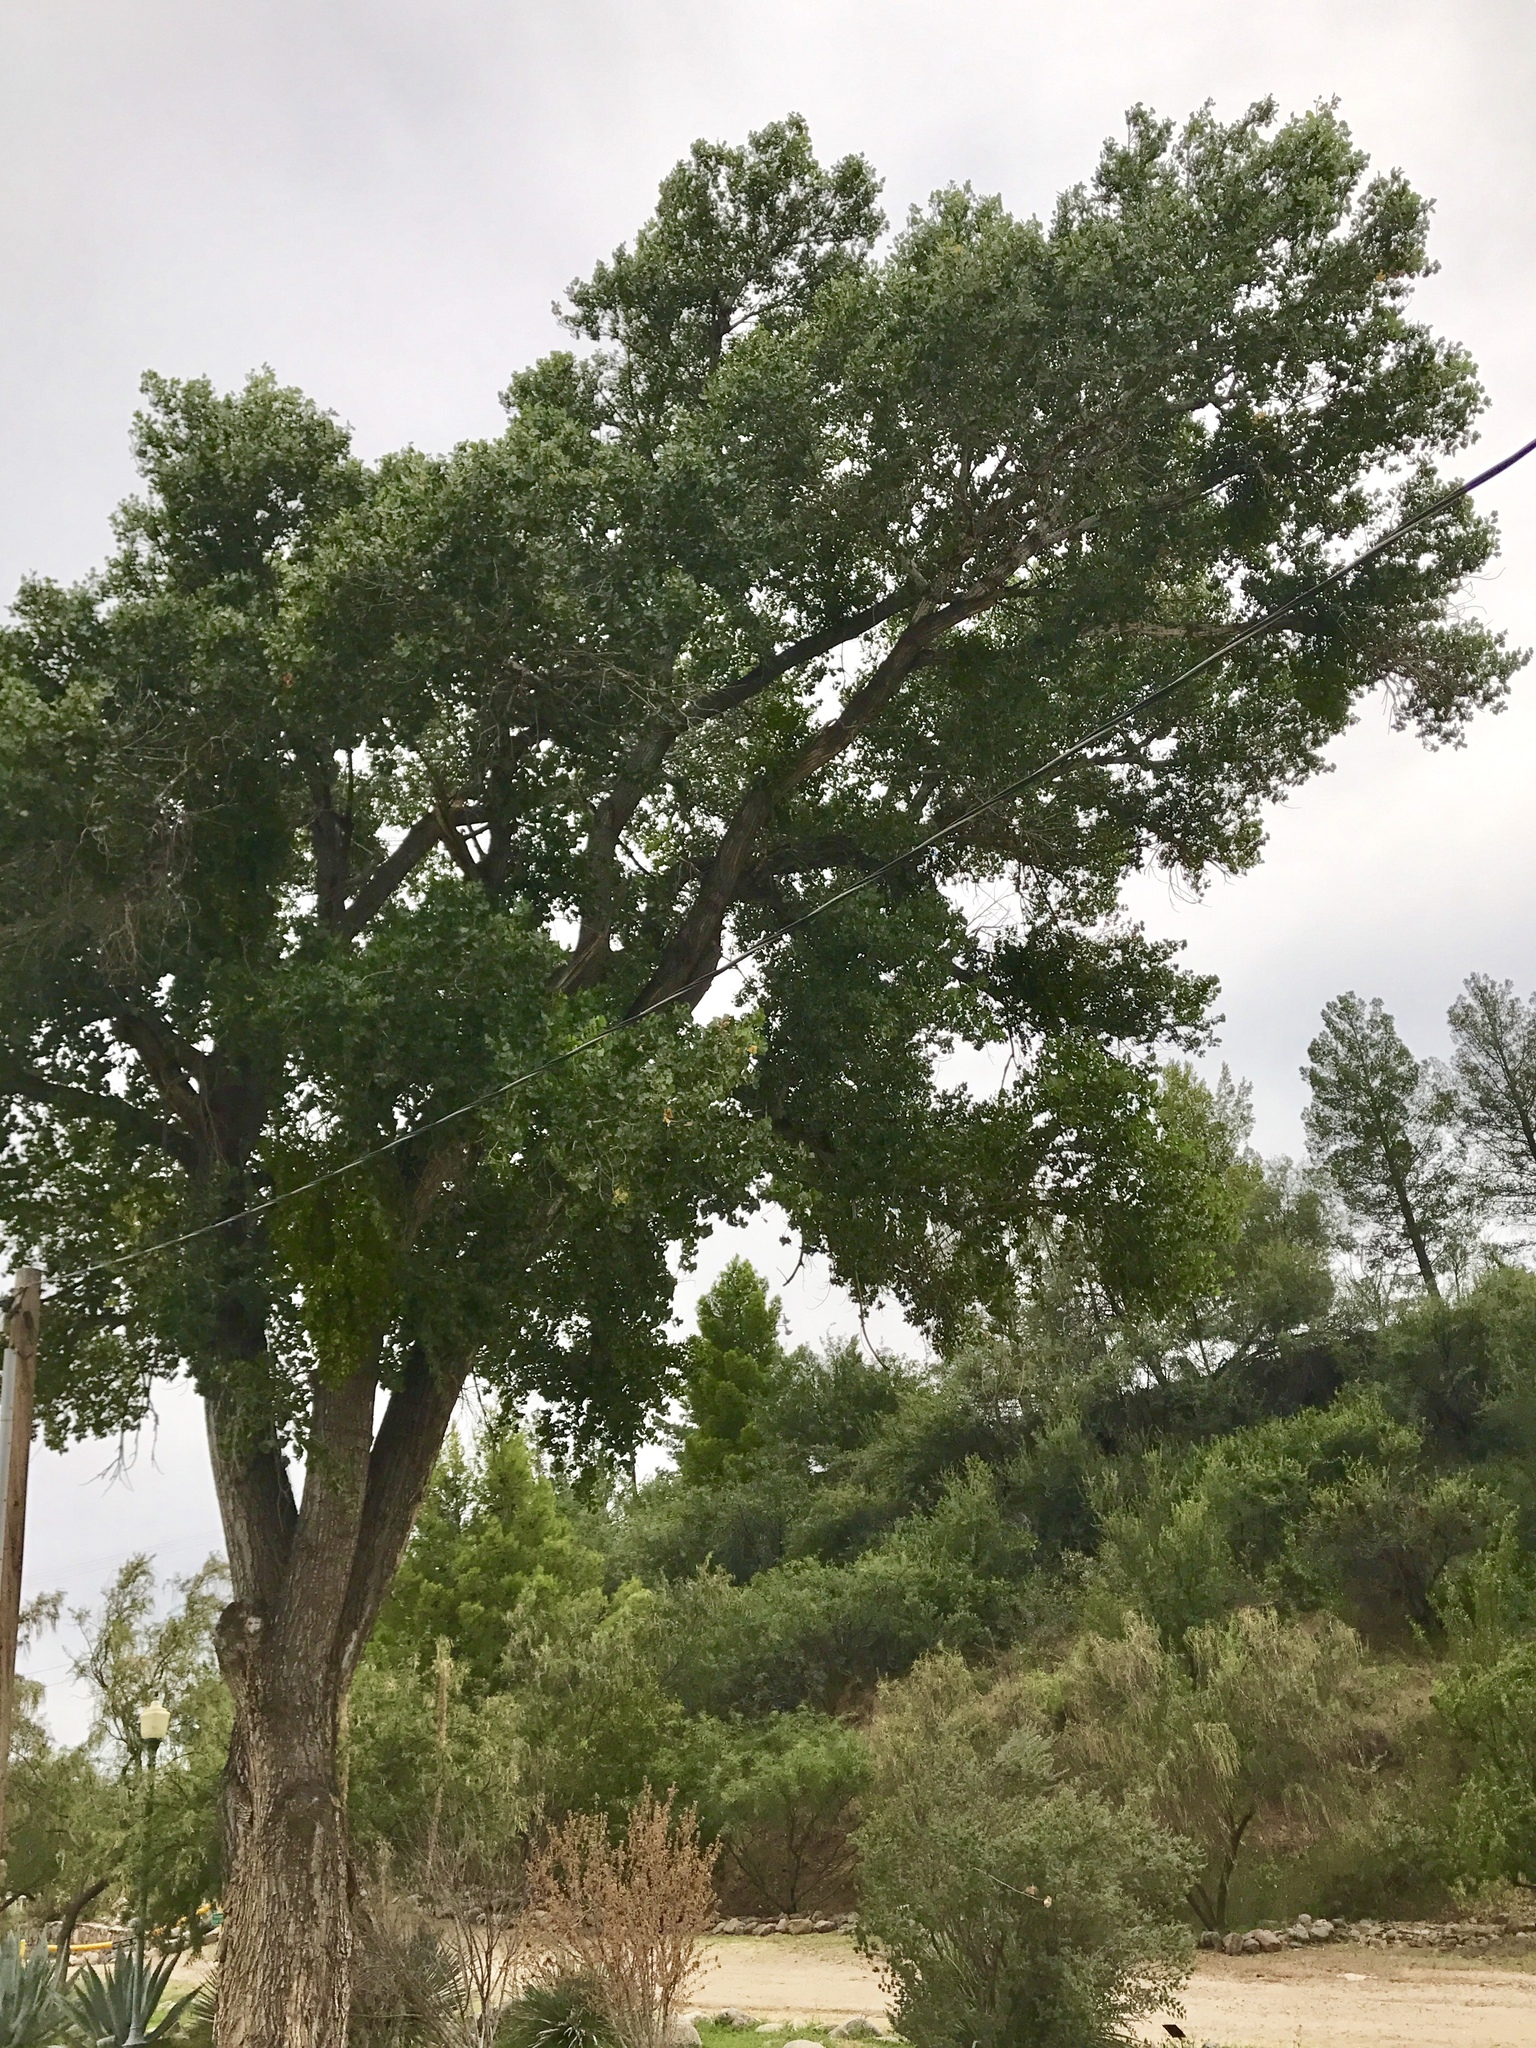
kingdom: Plantae
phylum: Tracheophyta
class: Magnoliopsida
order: Malpighiales
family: Salicaceae
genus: Populus
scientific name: Populus fremontii
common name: Fremont's cottonwood
